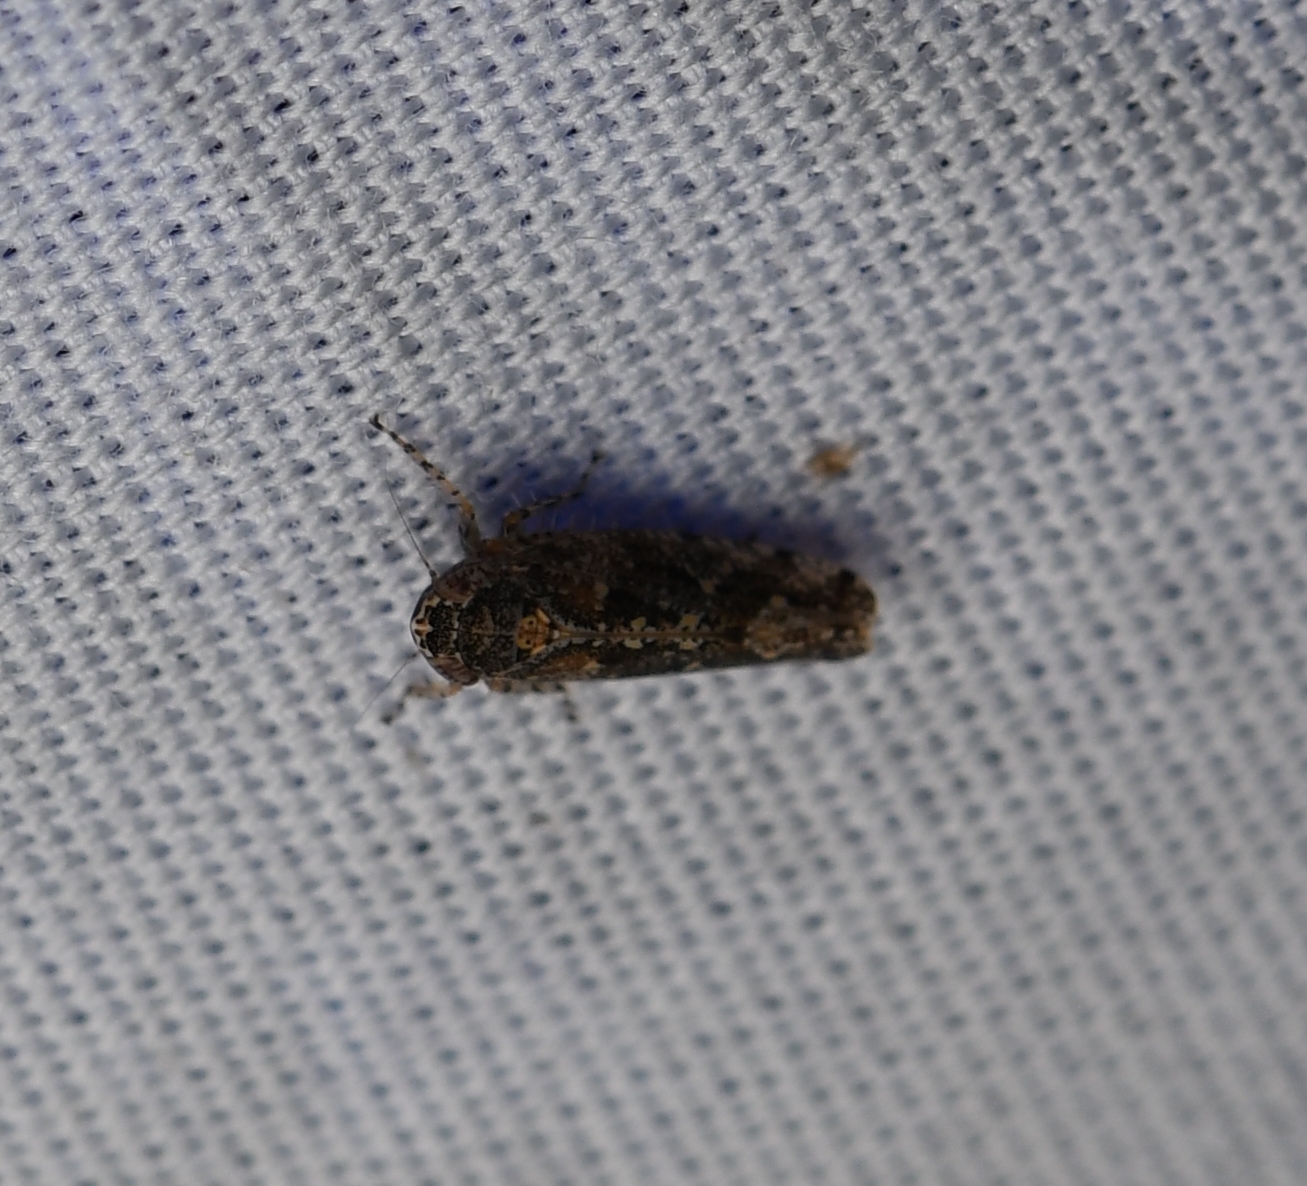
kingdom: Animalia
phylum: Arthropoda
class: Insecta
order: Hemiptera
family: Cicadellidae
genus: Dixianus
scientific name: Dixianus utahnus
